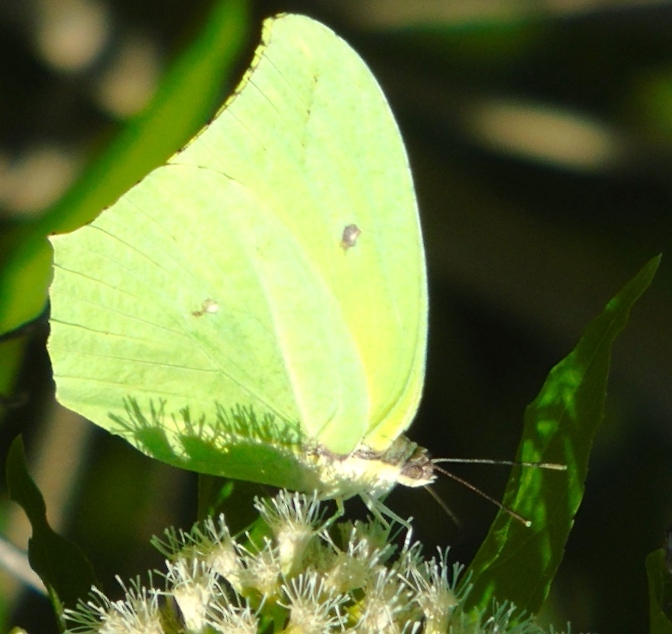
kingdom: Animalia
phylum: Arthropoda
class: Insecta
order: Lepidoptera
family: Pieridae
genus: Anteos
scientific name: Anteos maerula
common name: Angled sulphur
